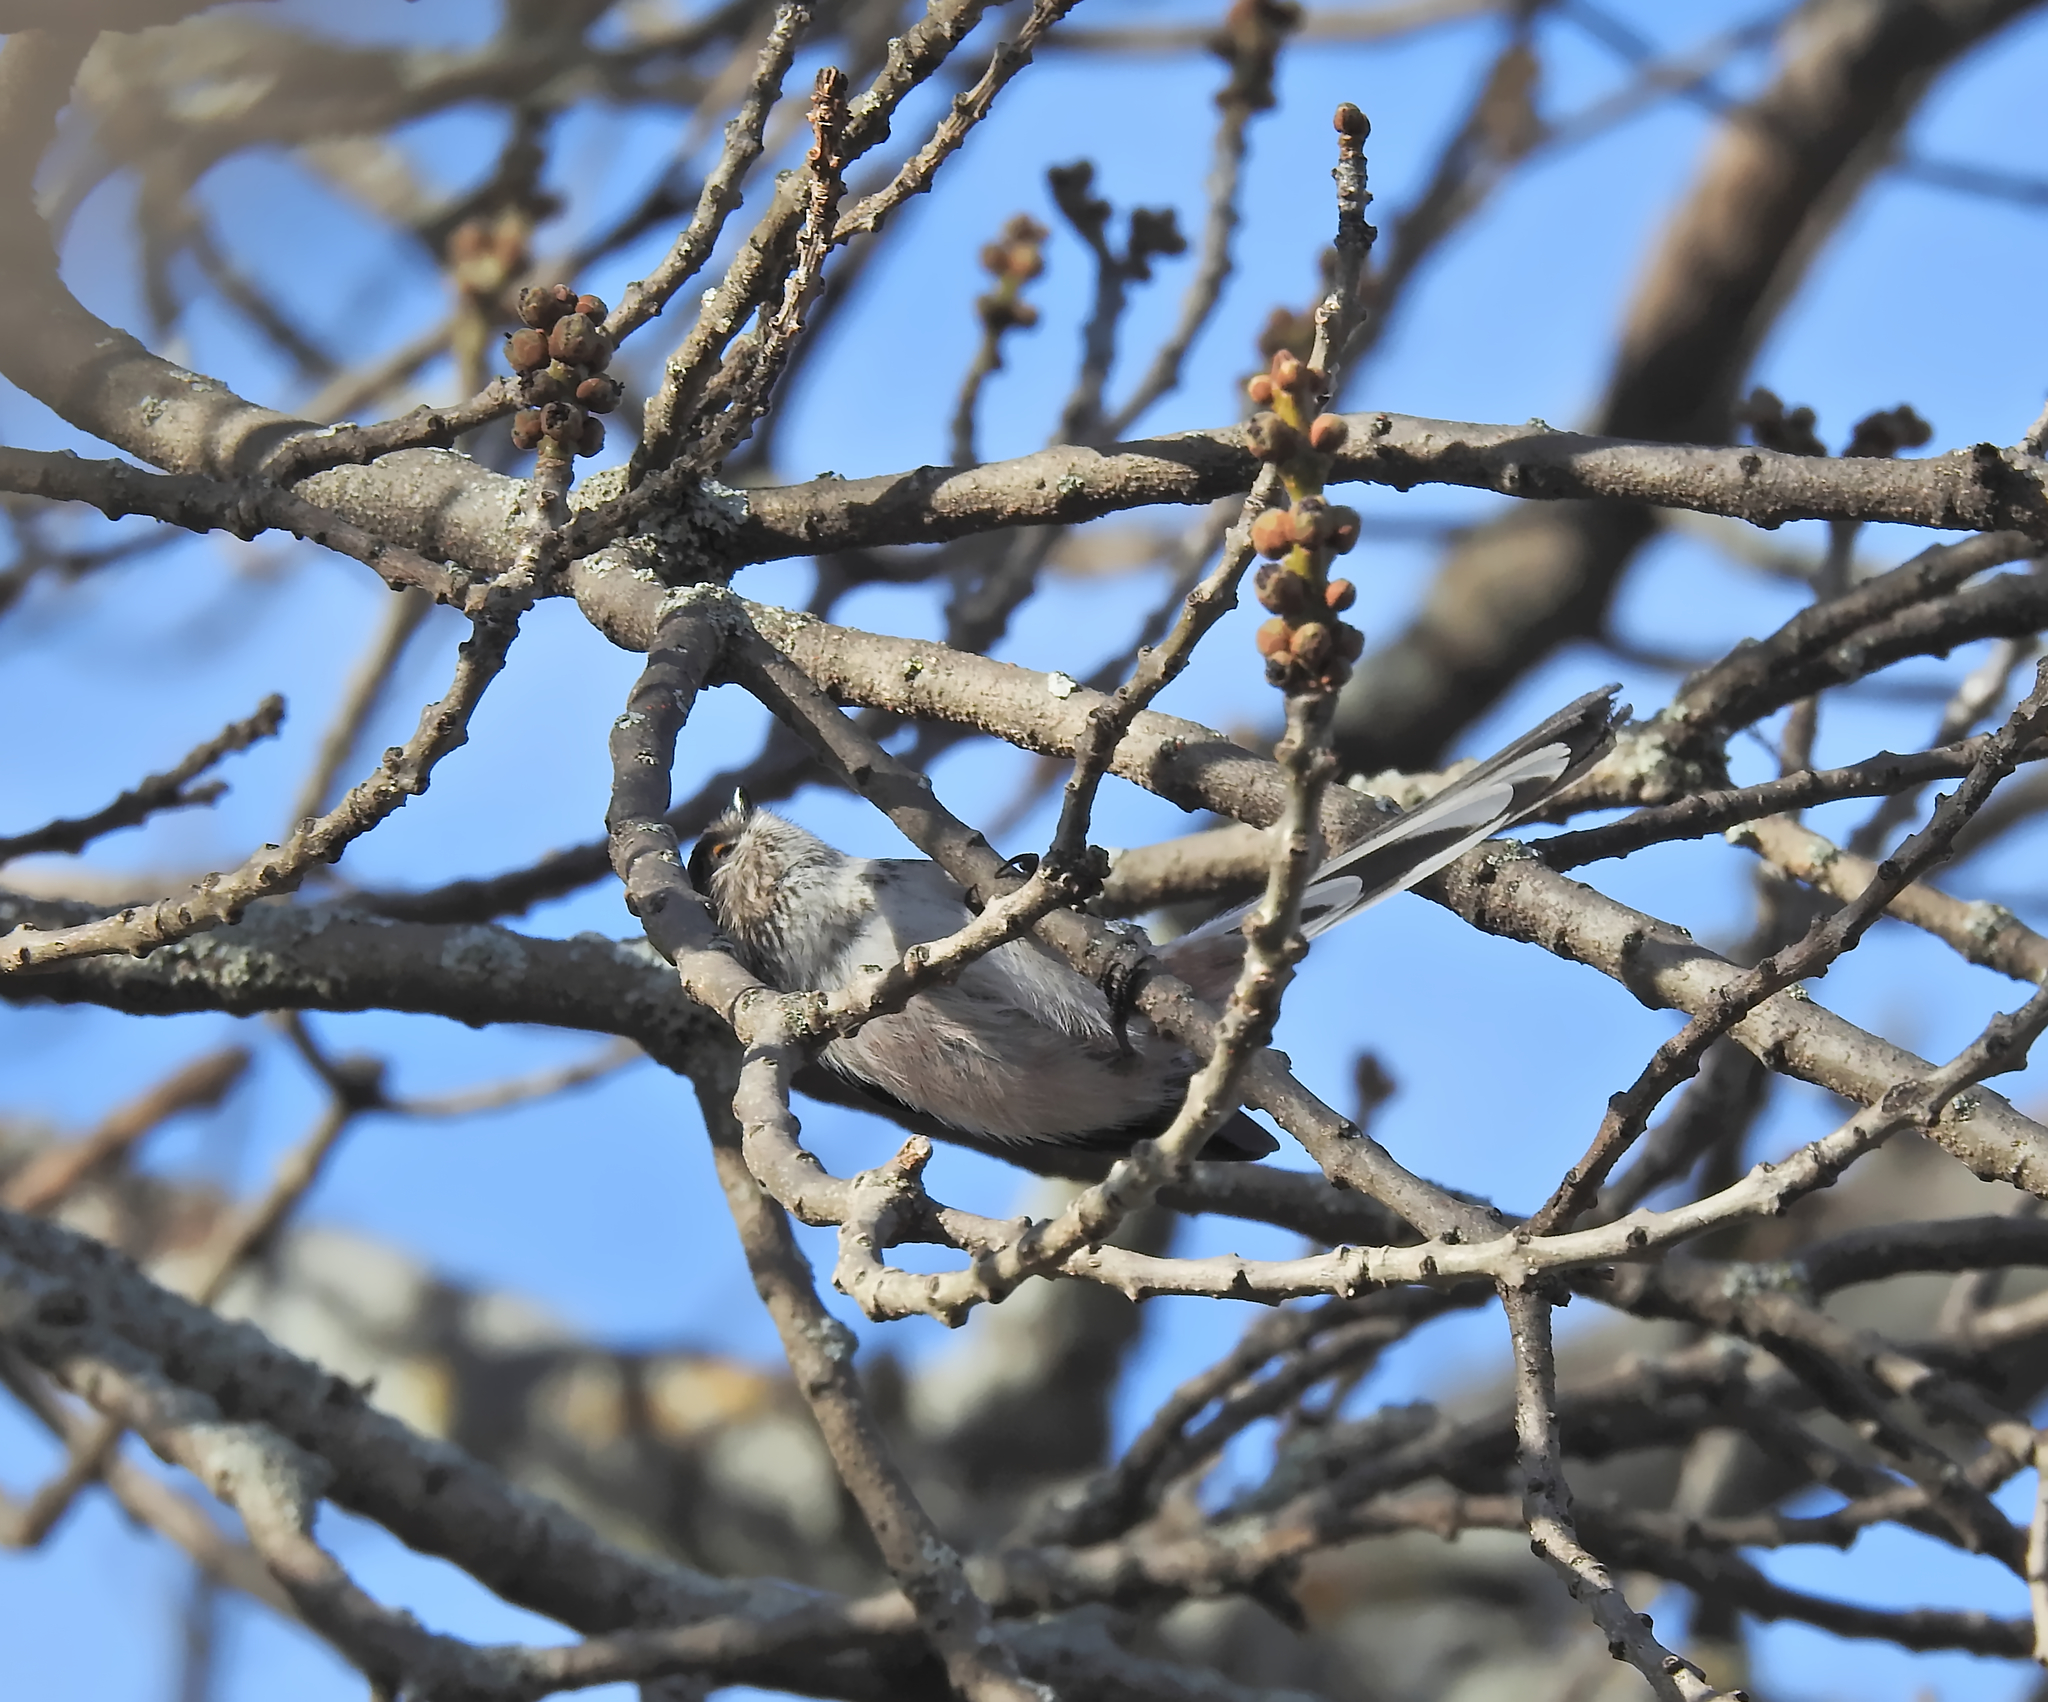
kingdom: Animalia
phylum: Chordata
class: Aves
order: Passeriformes
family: Aegithalidae
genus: Aegithalos
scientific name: Aegithalos caudatus
